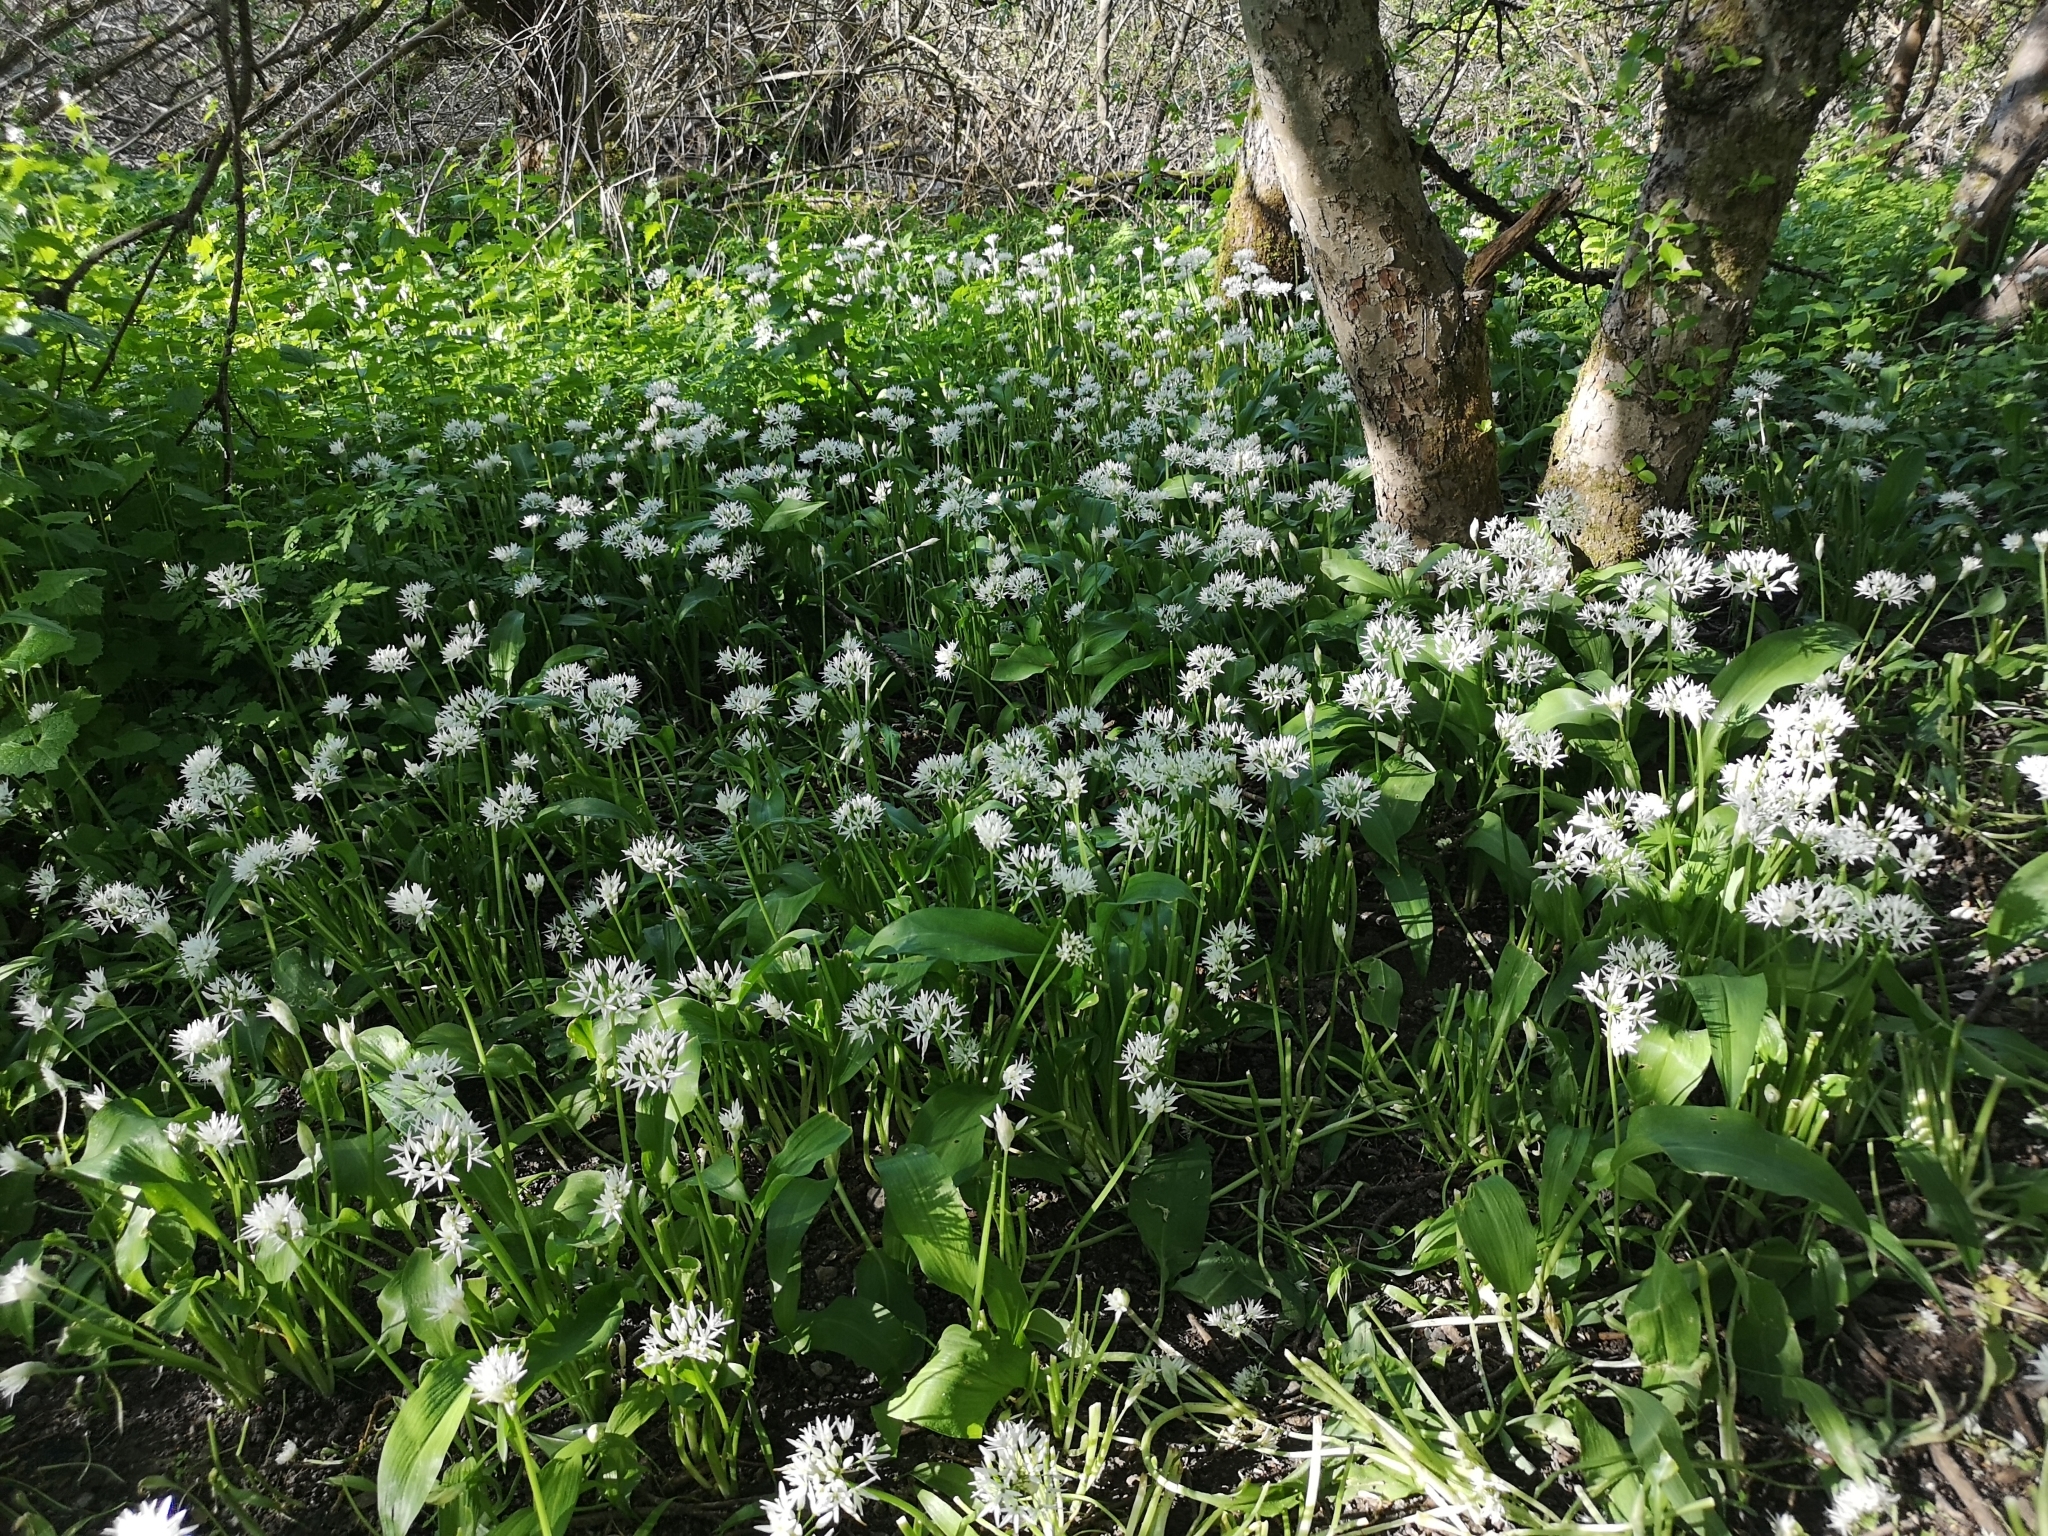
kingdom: Plantae
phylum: Tracheophyta
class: Liliopsida
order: Asparagales
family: Amaryllidaceae
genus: Allium
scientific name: Allium ursinum
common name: Ramsons
